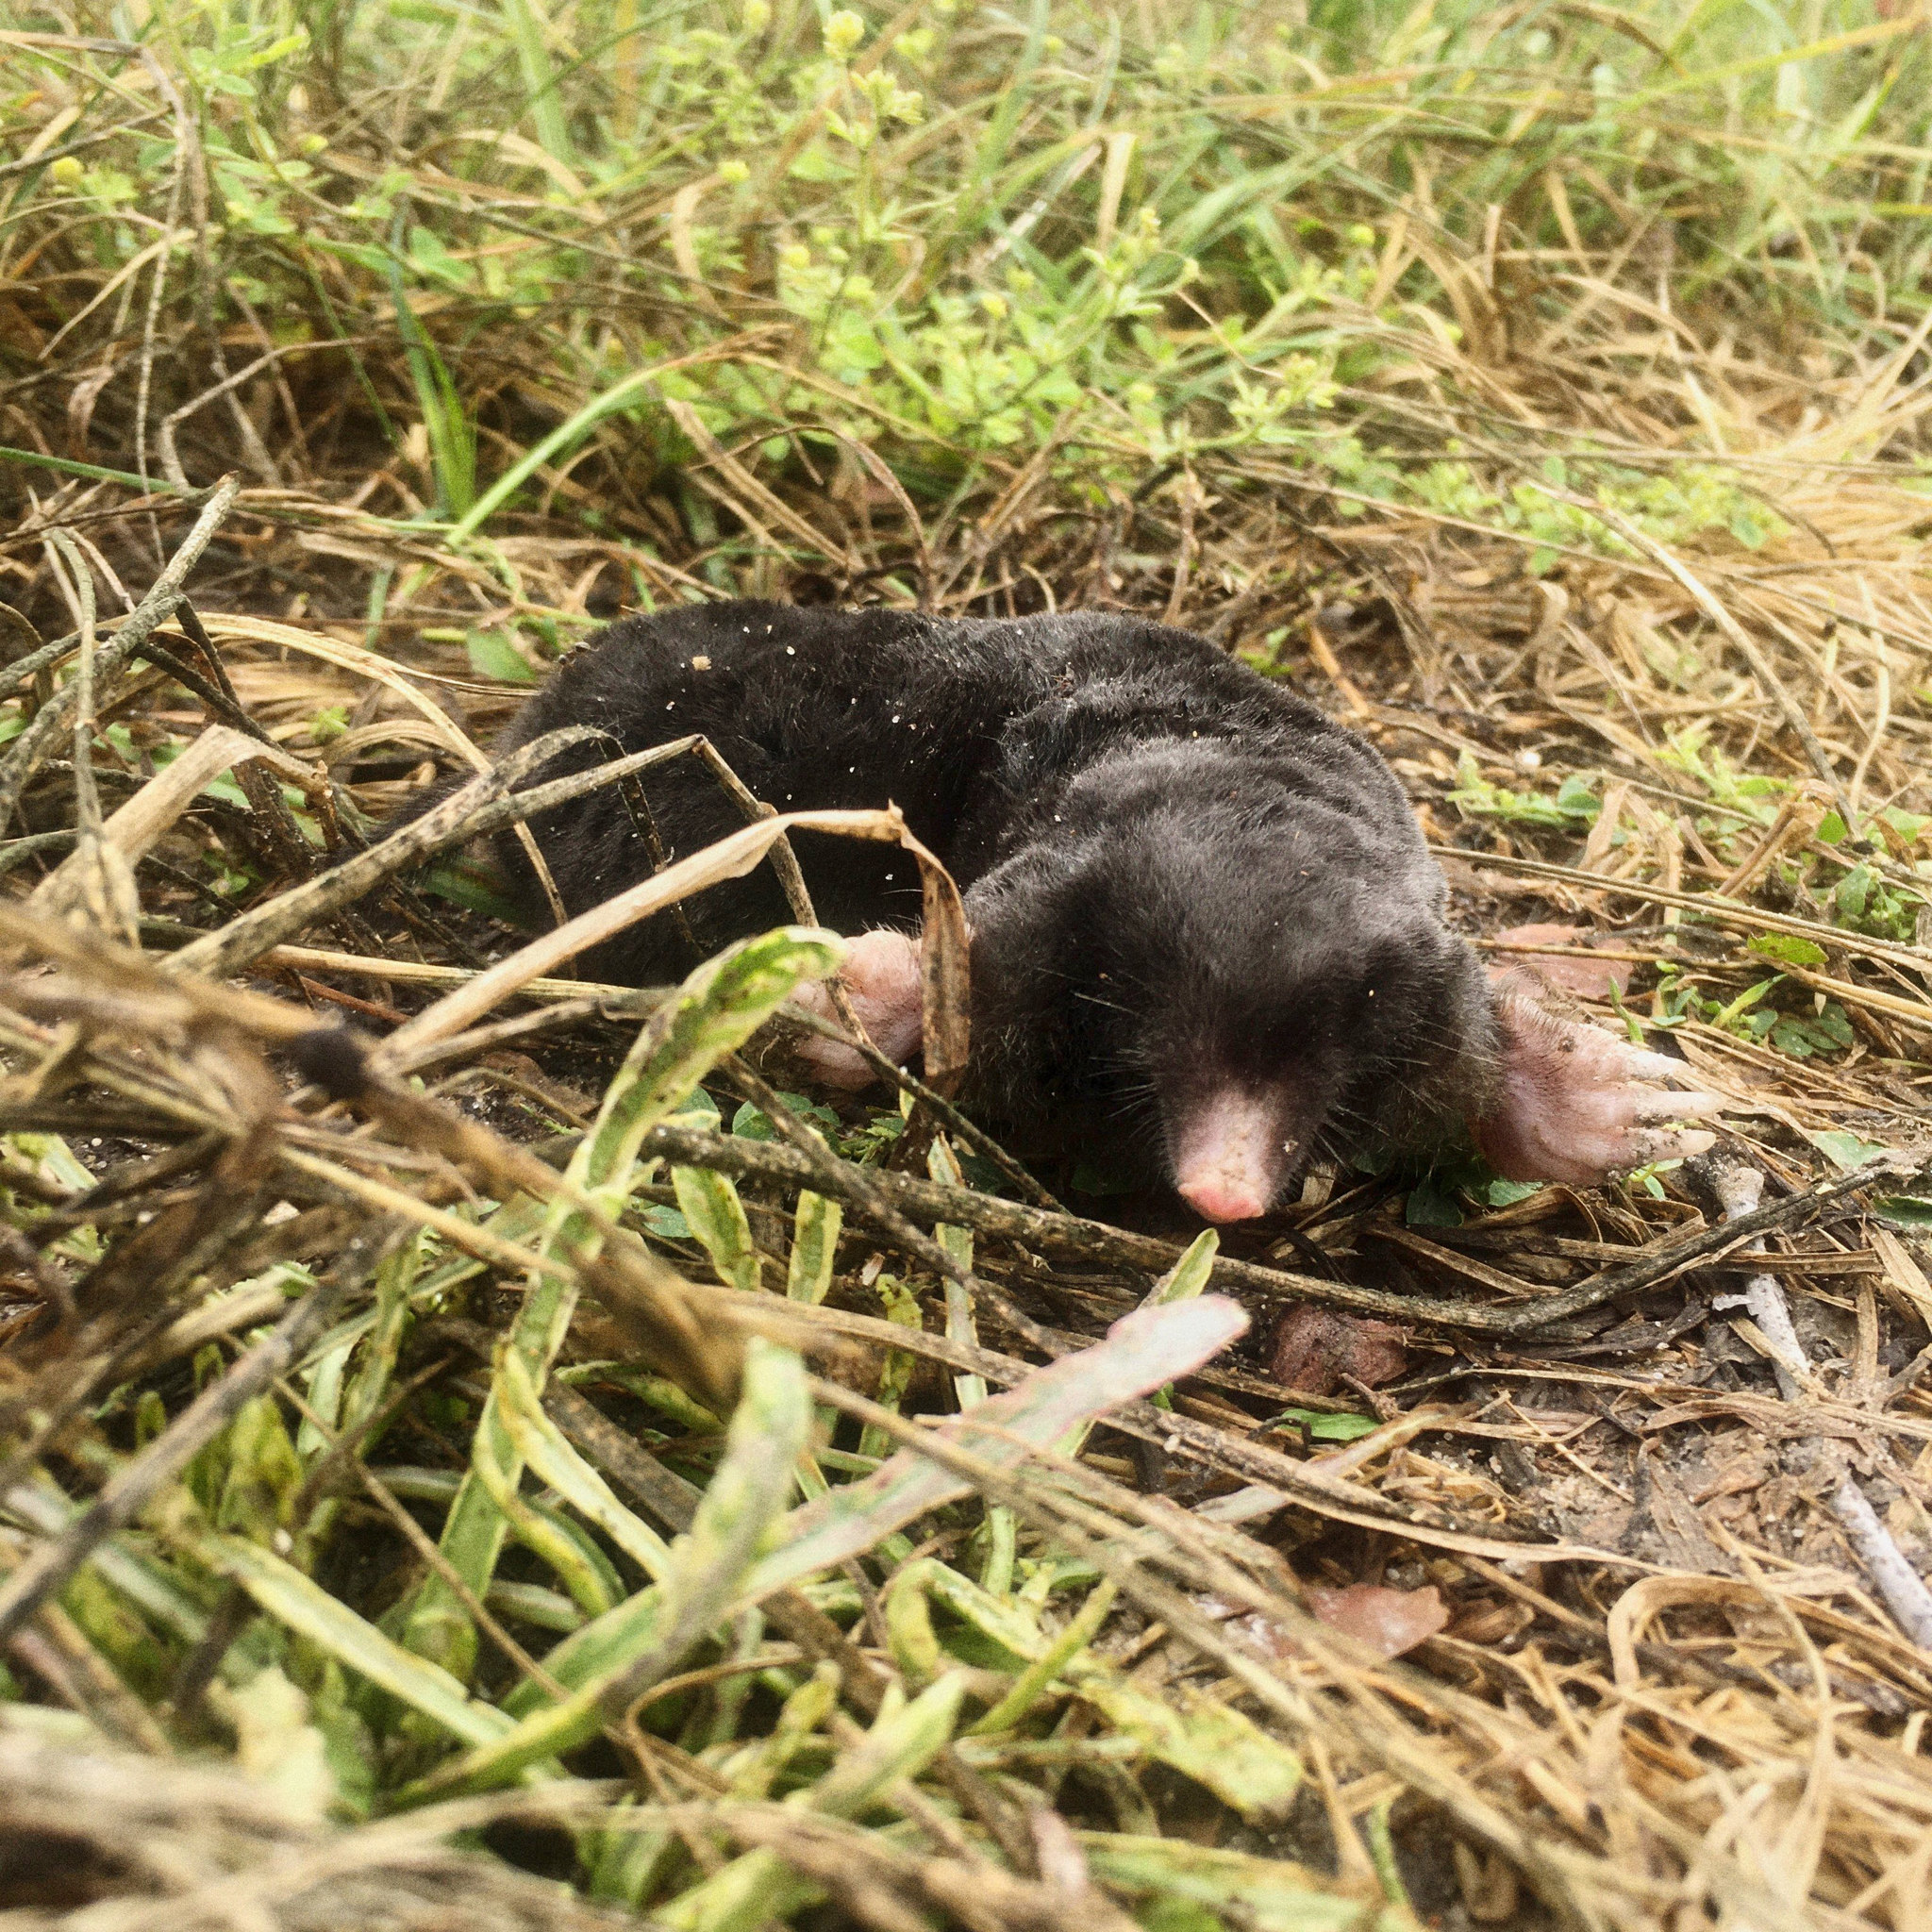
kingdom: Animalia
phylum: Chordata
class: Mammalia
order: Soricomorpha
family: Talpidae
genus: Talpa
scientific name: Talpa europaea
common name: European mole
